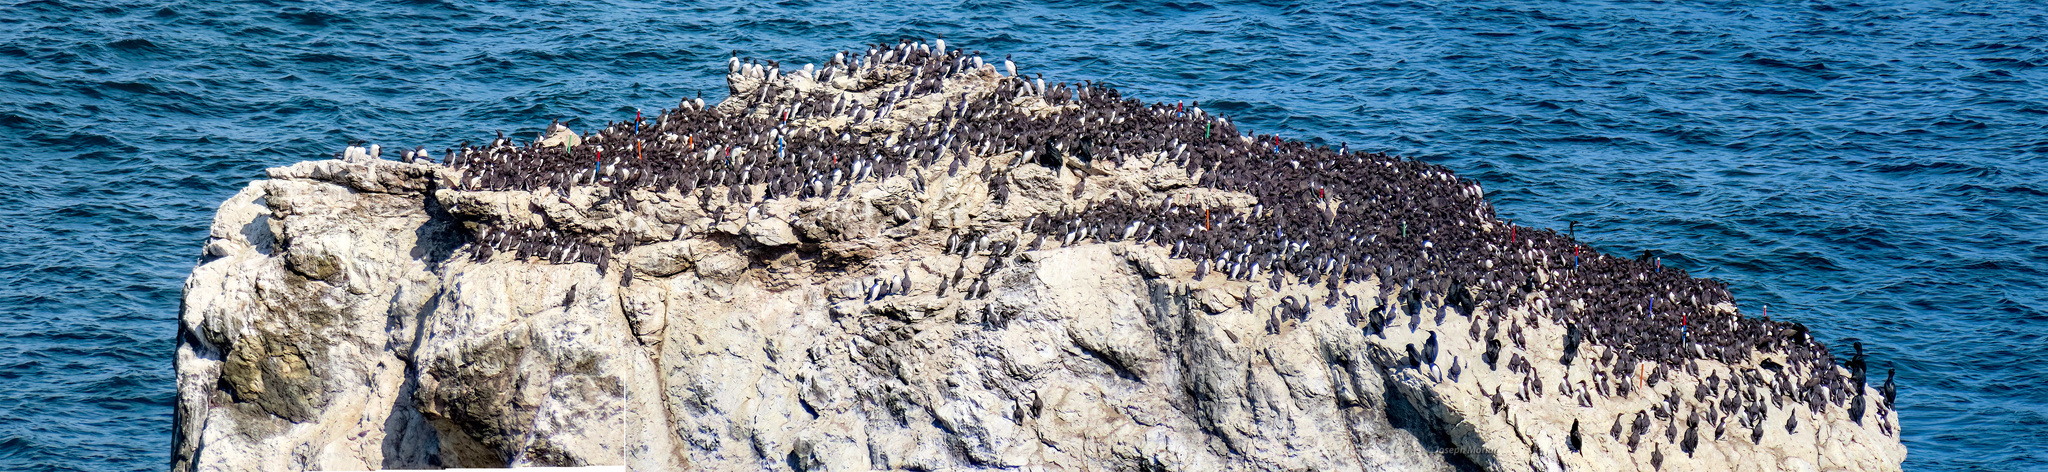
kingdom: Animalia
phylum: Chordata
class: Aves
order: Charadriiformes
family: Alcidae
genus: Uria
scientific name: Uria aalge
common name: Common murre
